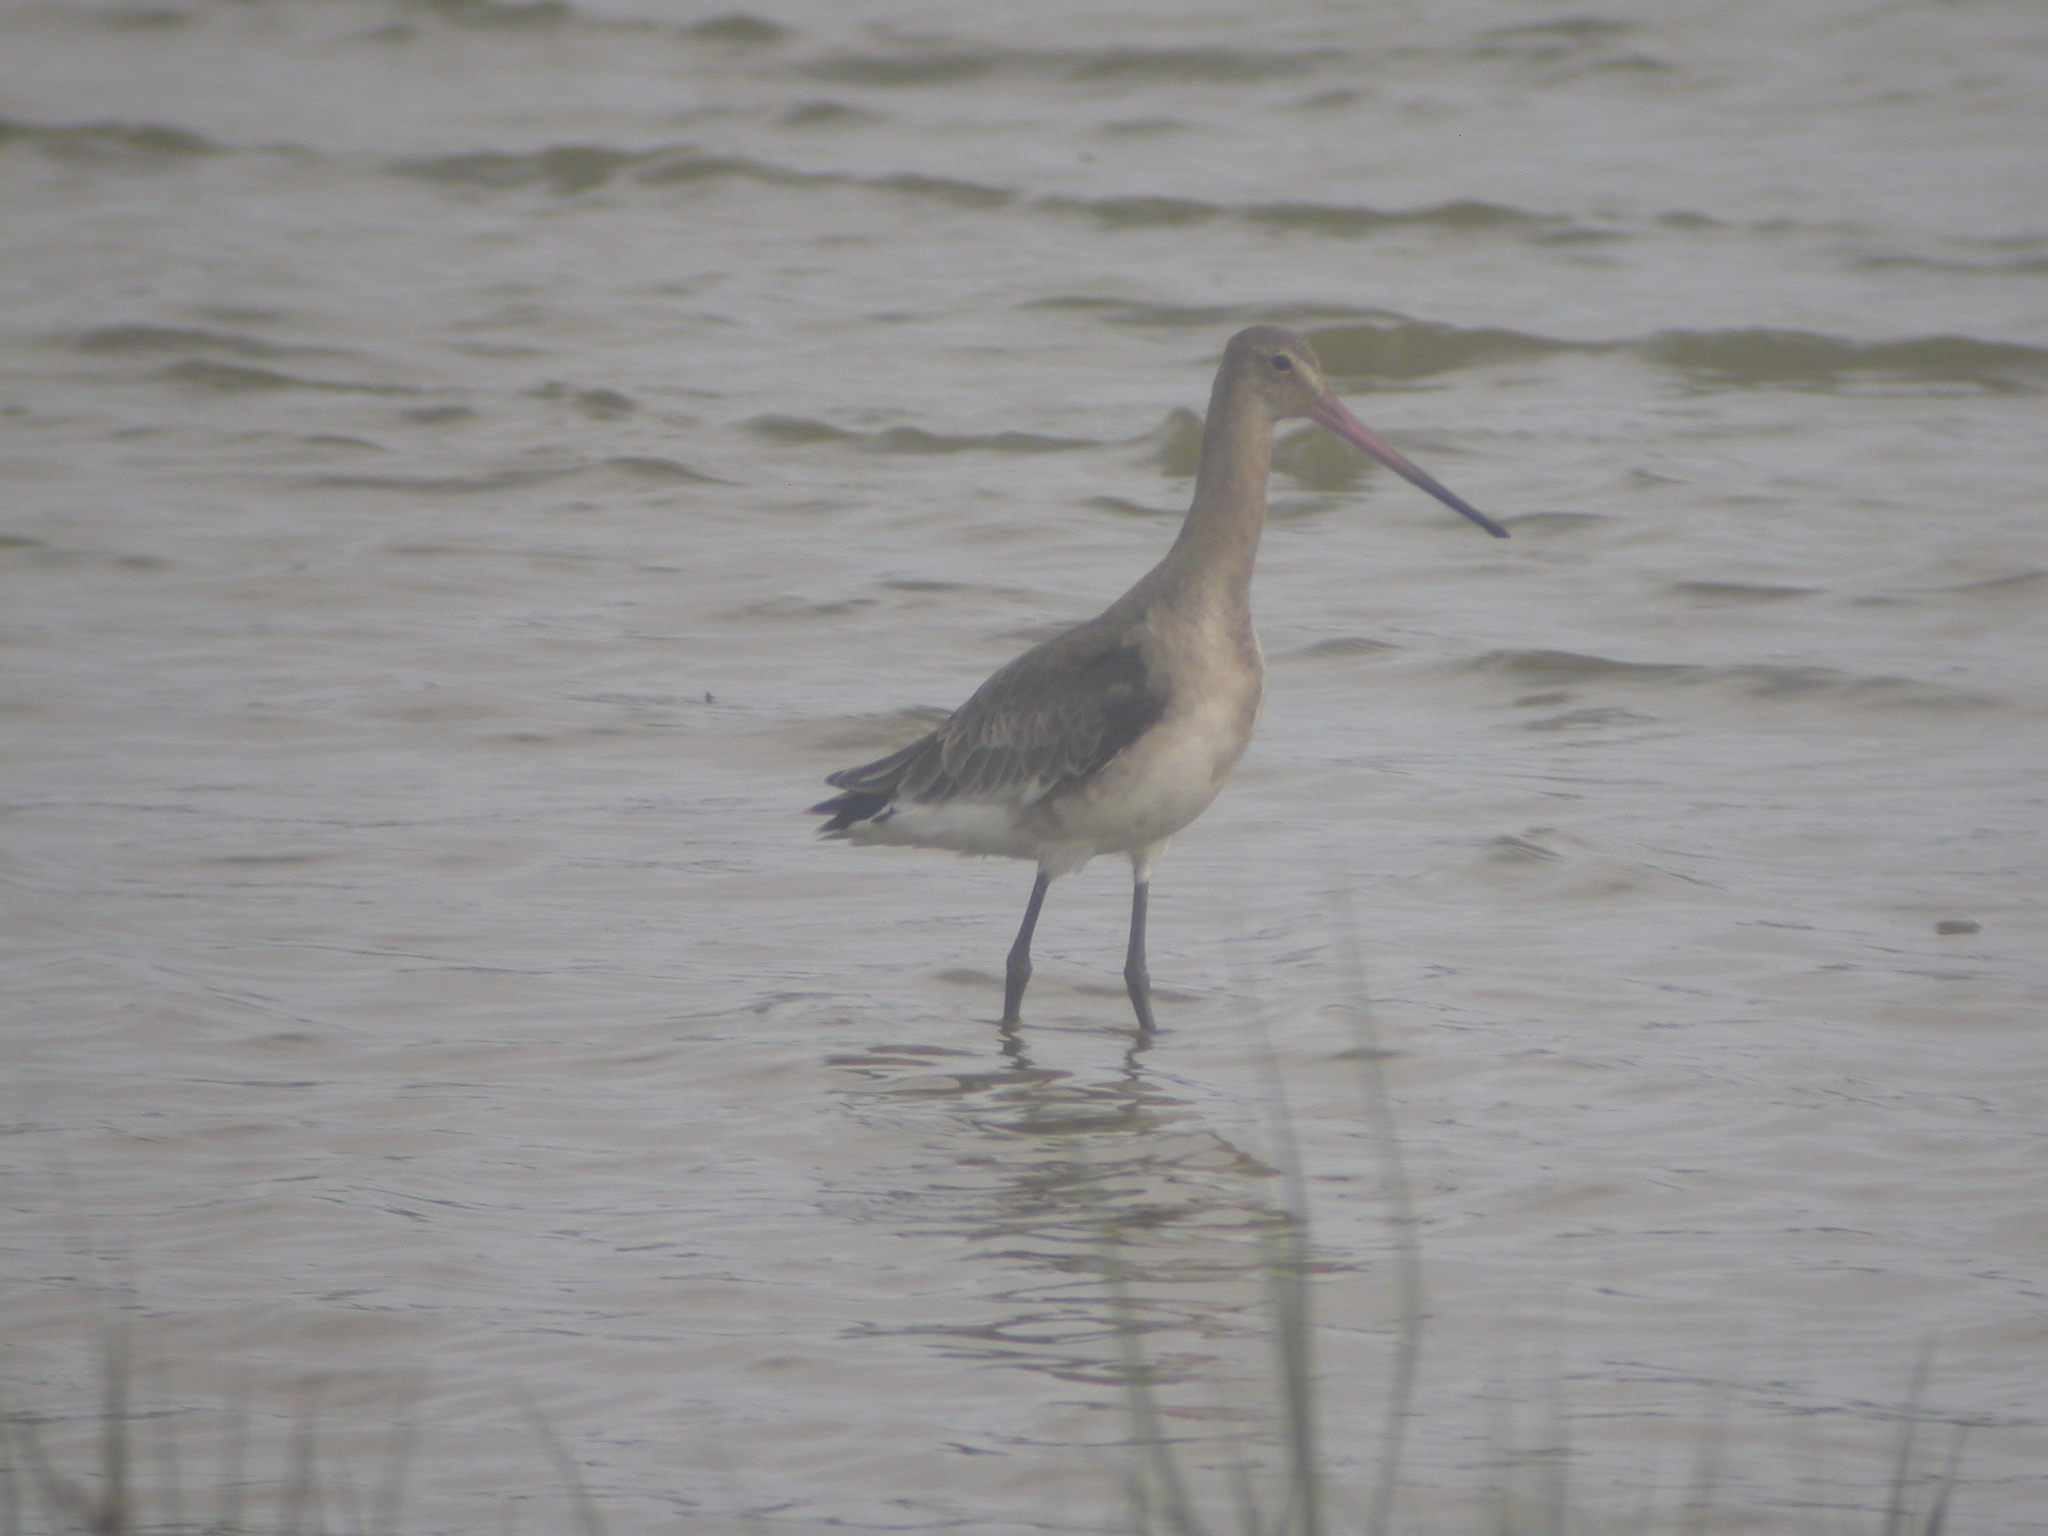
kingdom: Animalia
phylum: Chordata
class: Aves
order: Charadriiformes
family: Scolopacidae
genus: Limosa
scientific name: Limosa limosa
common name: Black-tailed godwit
